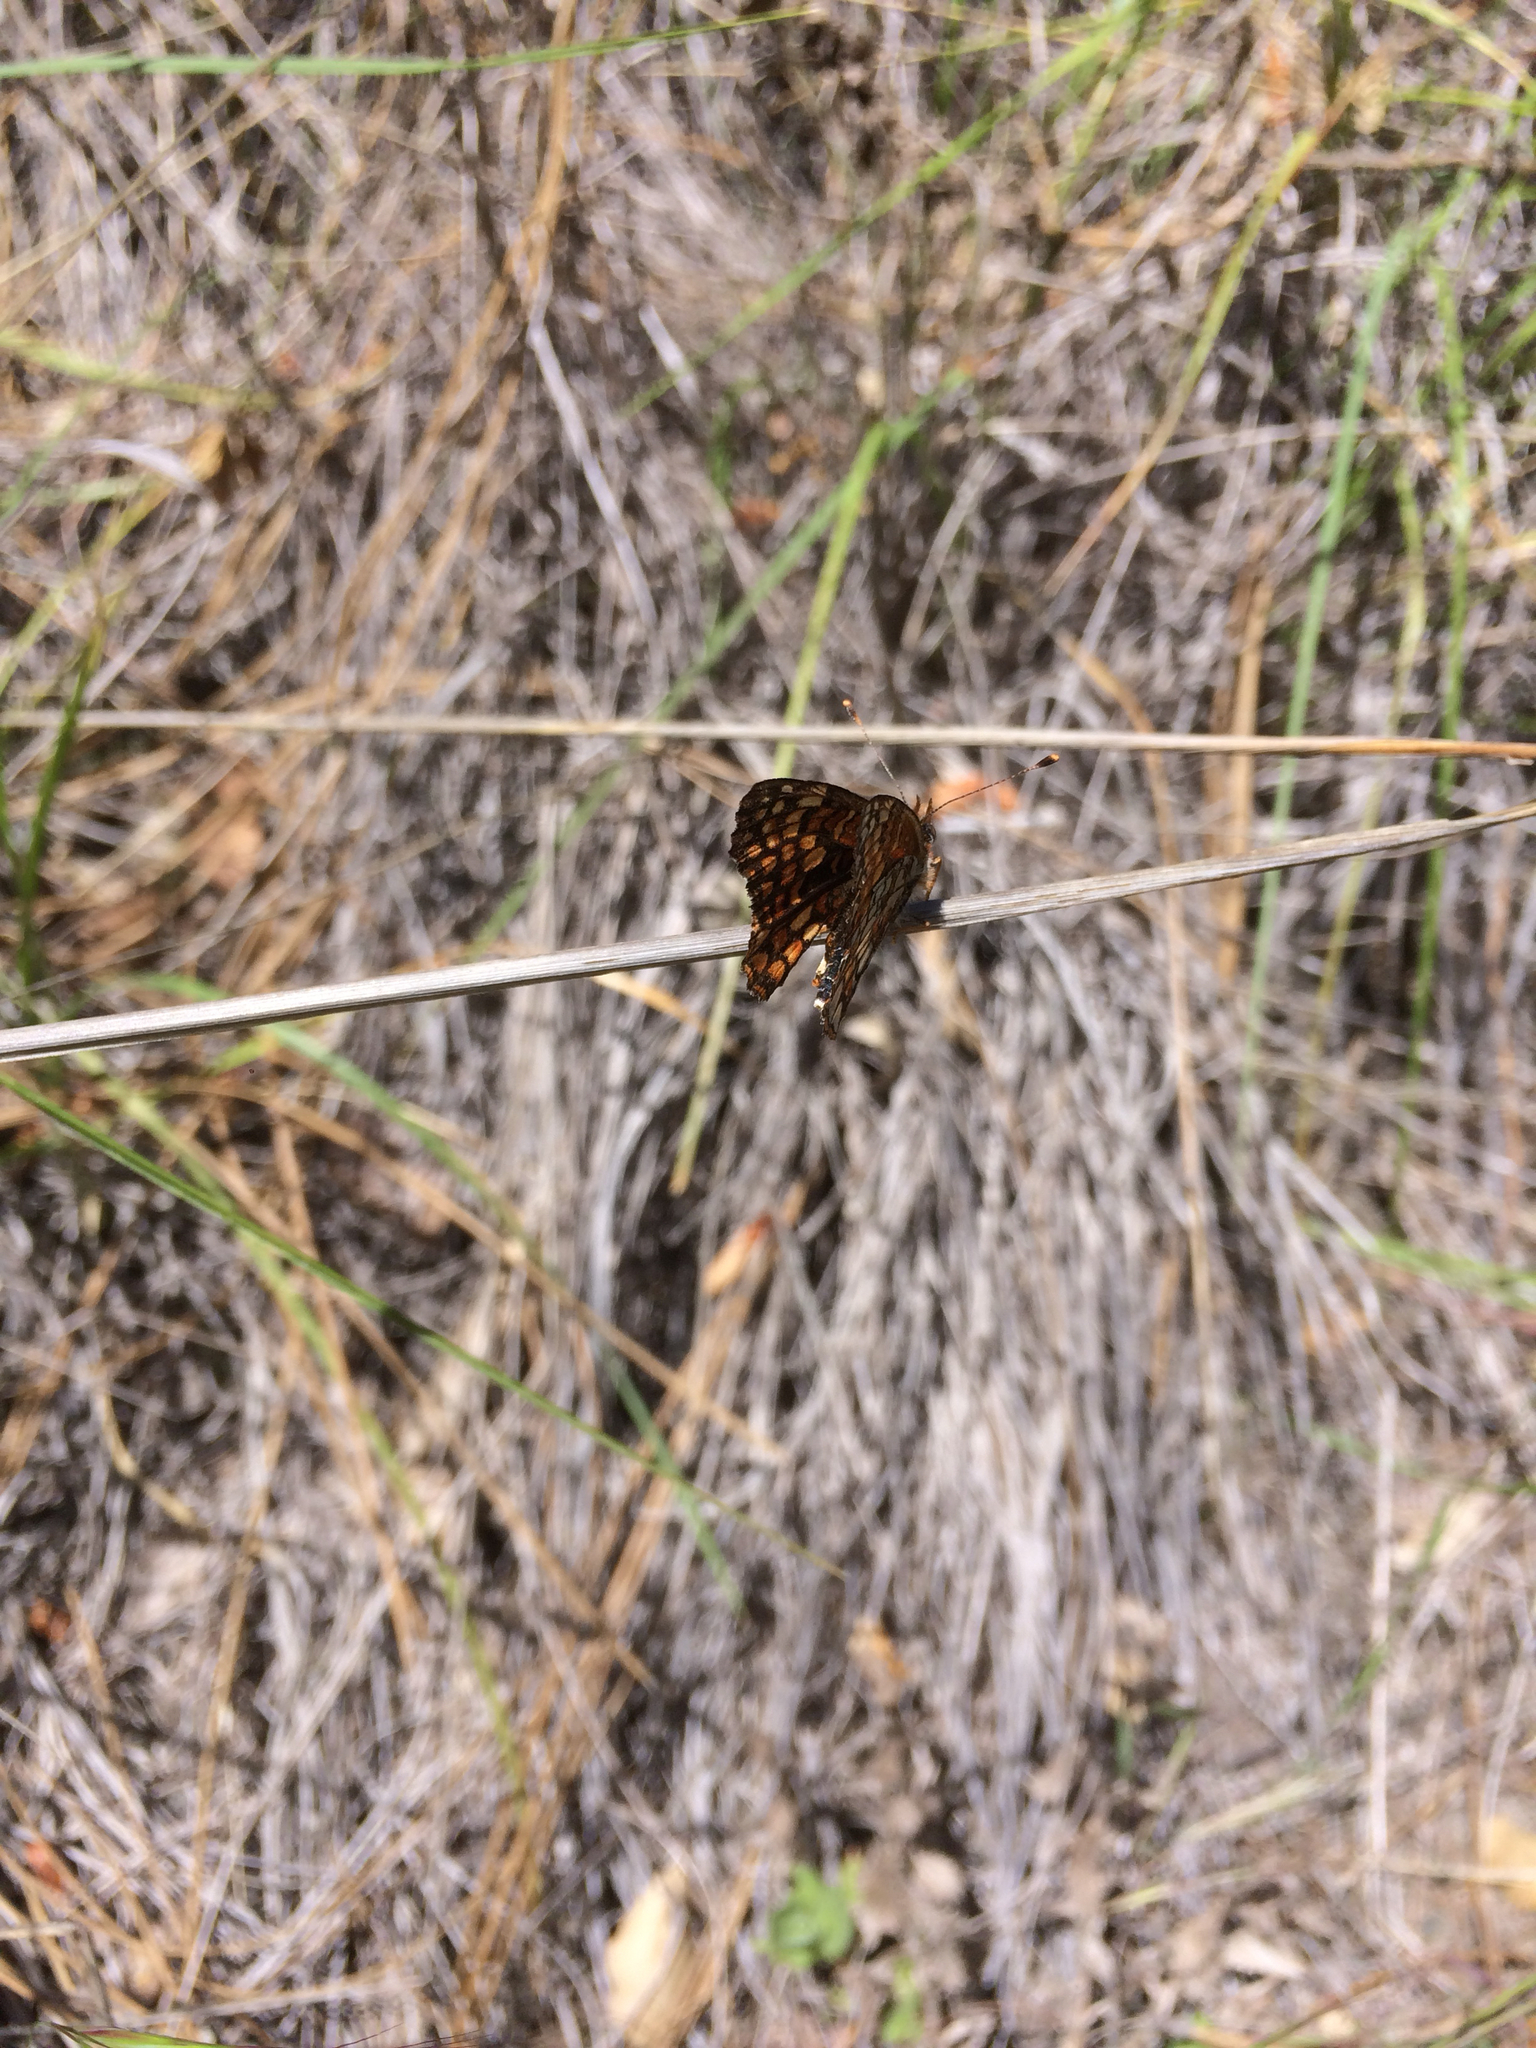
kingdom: Animalia
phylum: Arthropoda
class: Insecta
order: Lepidoptera
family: Nymphalidae
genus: Chlosyne
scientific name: Chlosyne gabbii
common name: Gabb's checkerspot
